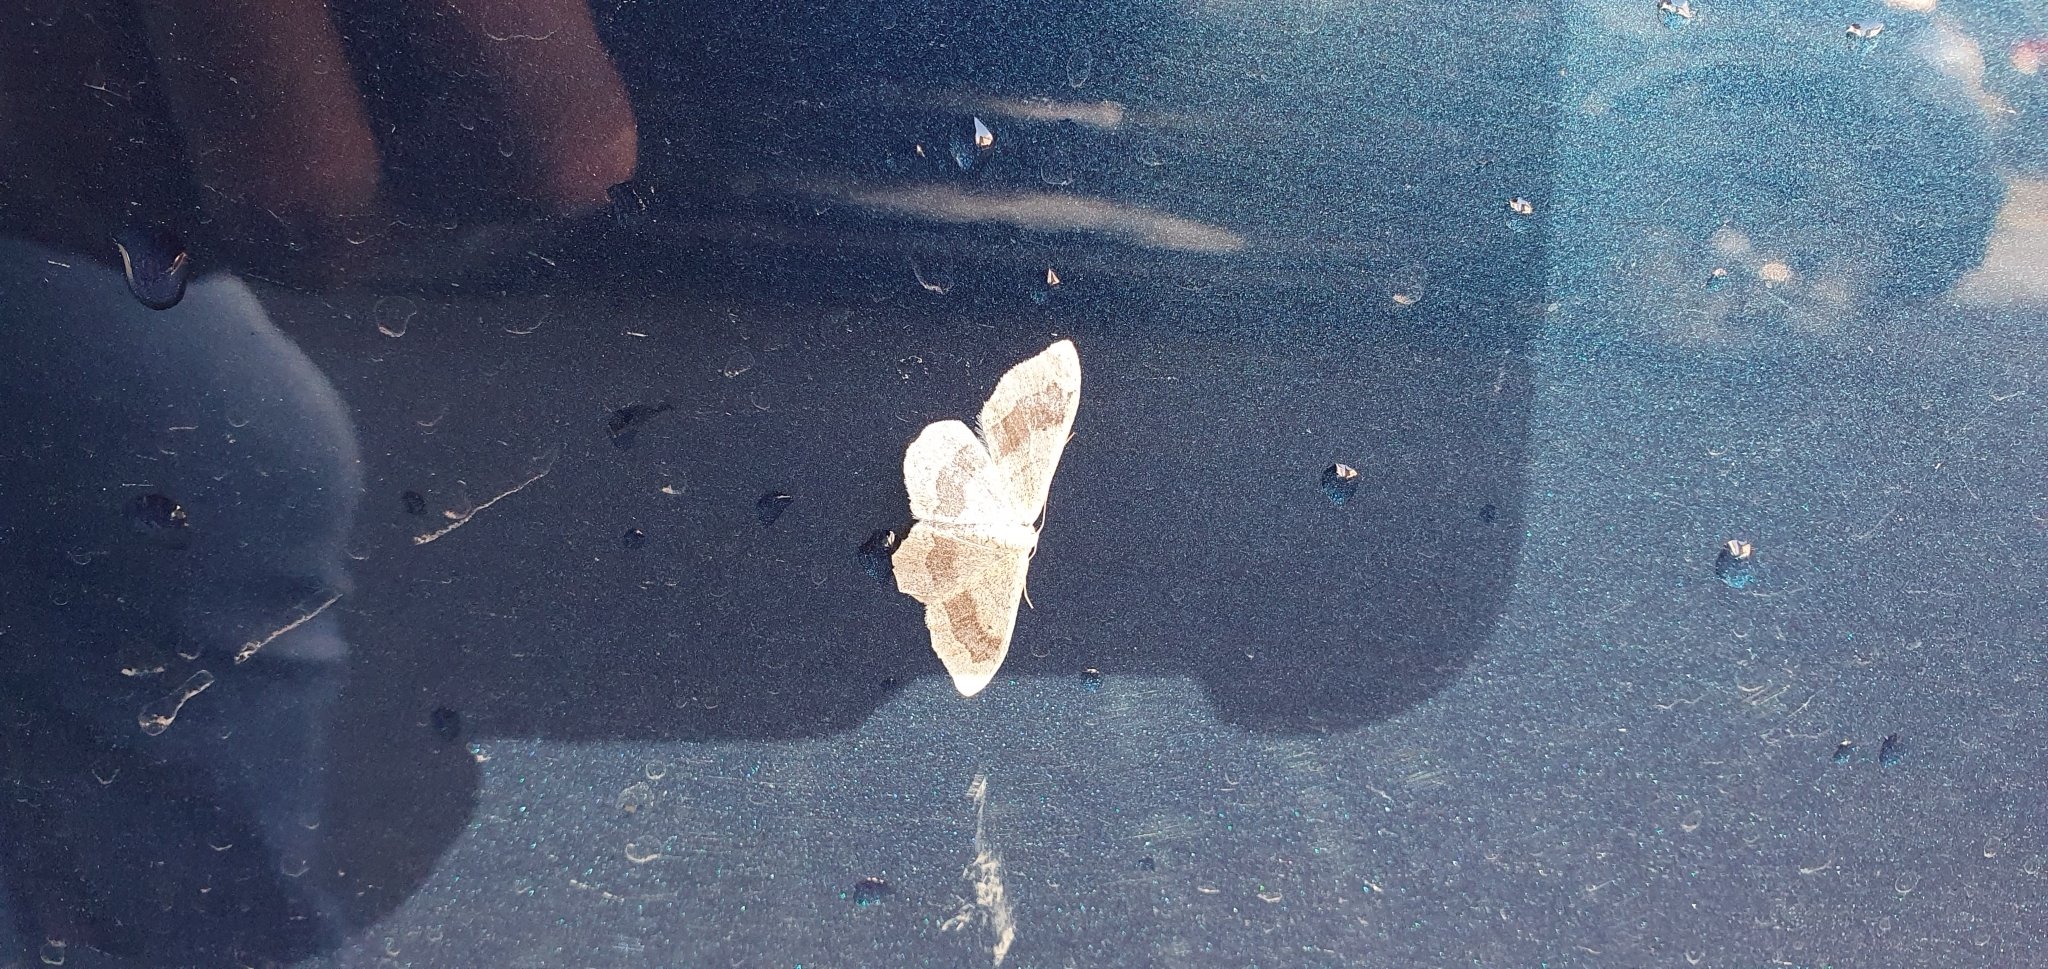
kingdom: Animalia
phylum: Arthropoda
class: Insecta
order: Lepidoptera
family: Geometridae
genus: Idaea
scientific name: Idaea aversata
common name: Riband wave
